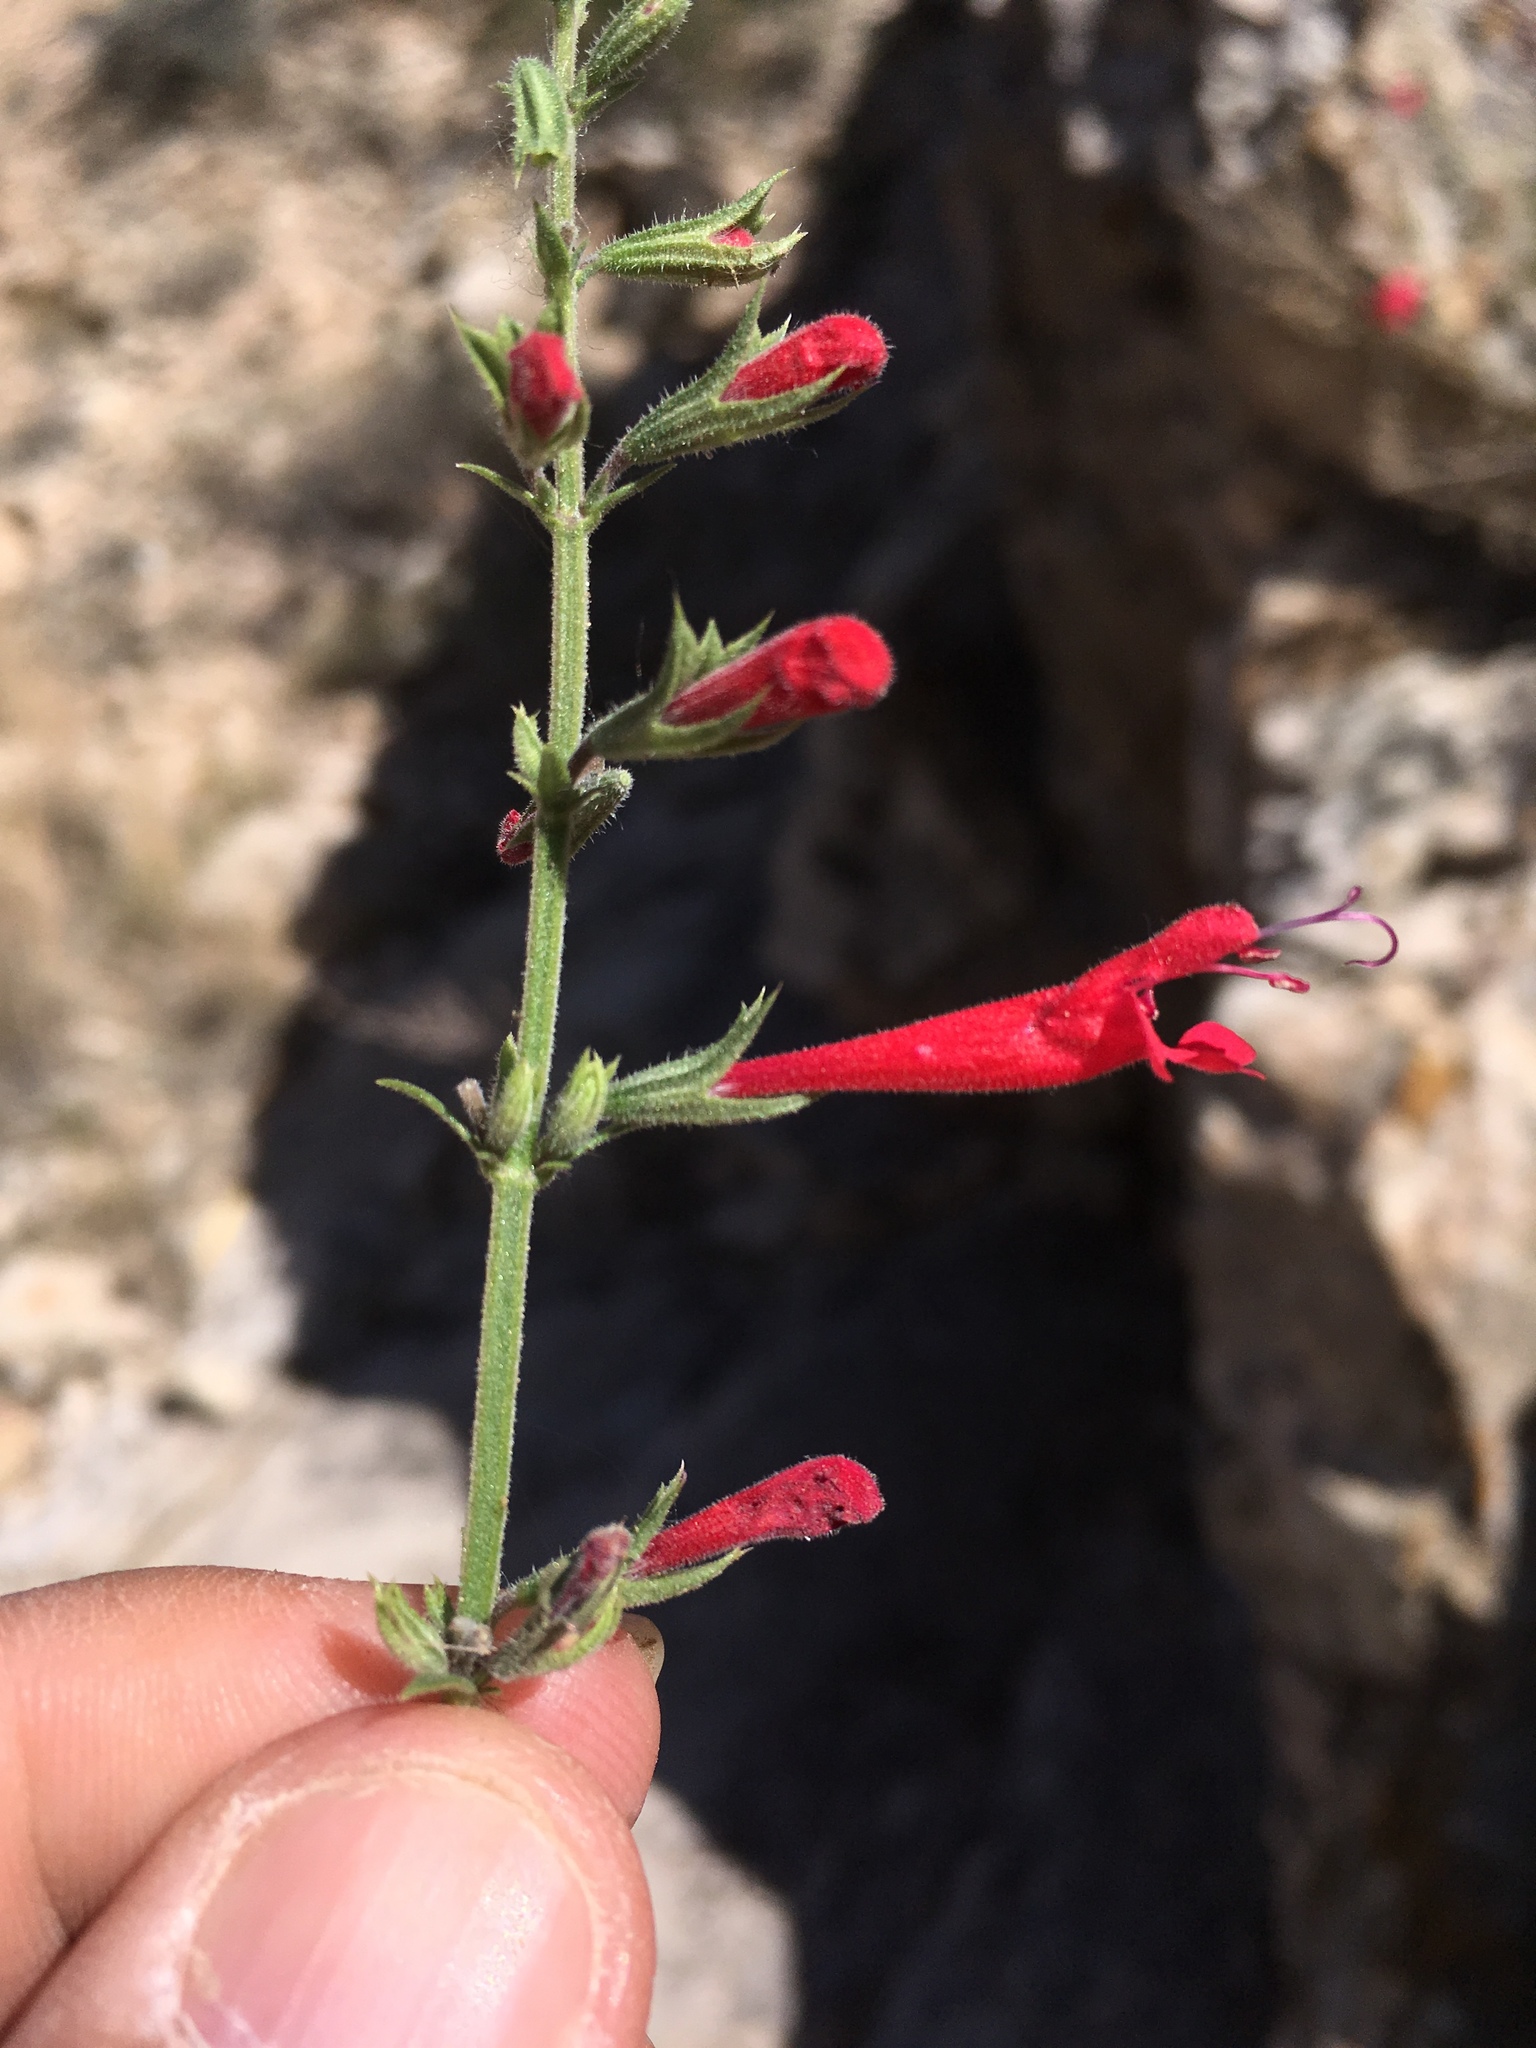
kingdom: Plantae
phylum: Tracheophyta
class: Magnoliopsida
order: Lamiales
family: Lamiaceae
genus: Salvia
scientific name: Salvia henryi
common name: Henry's sage
